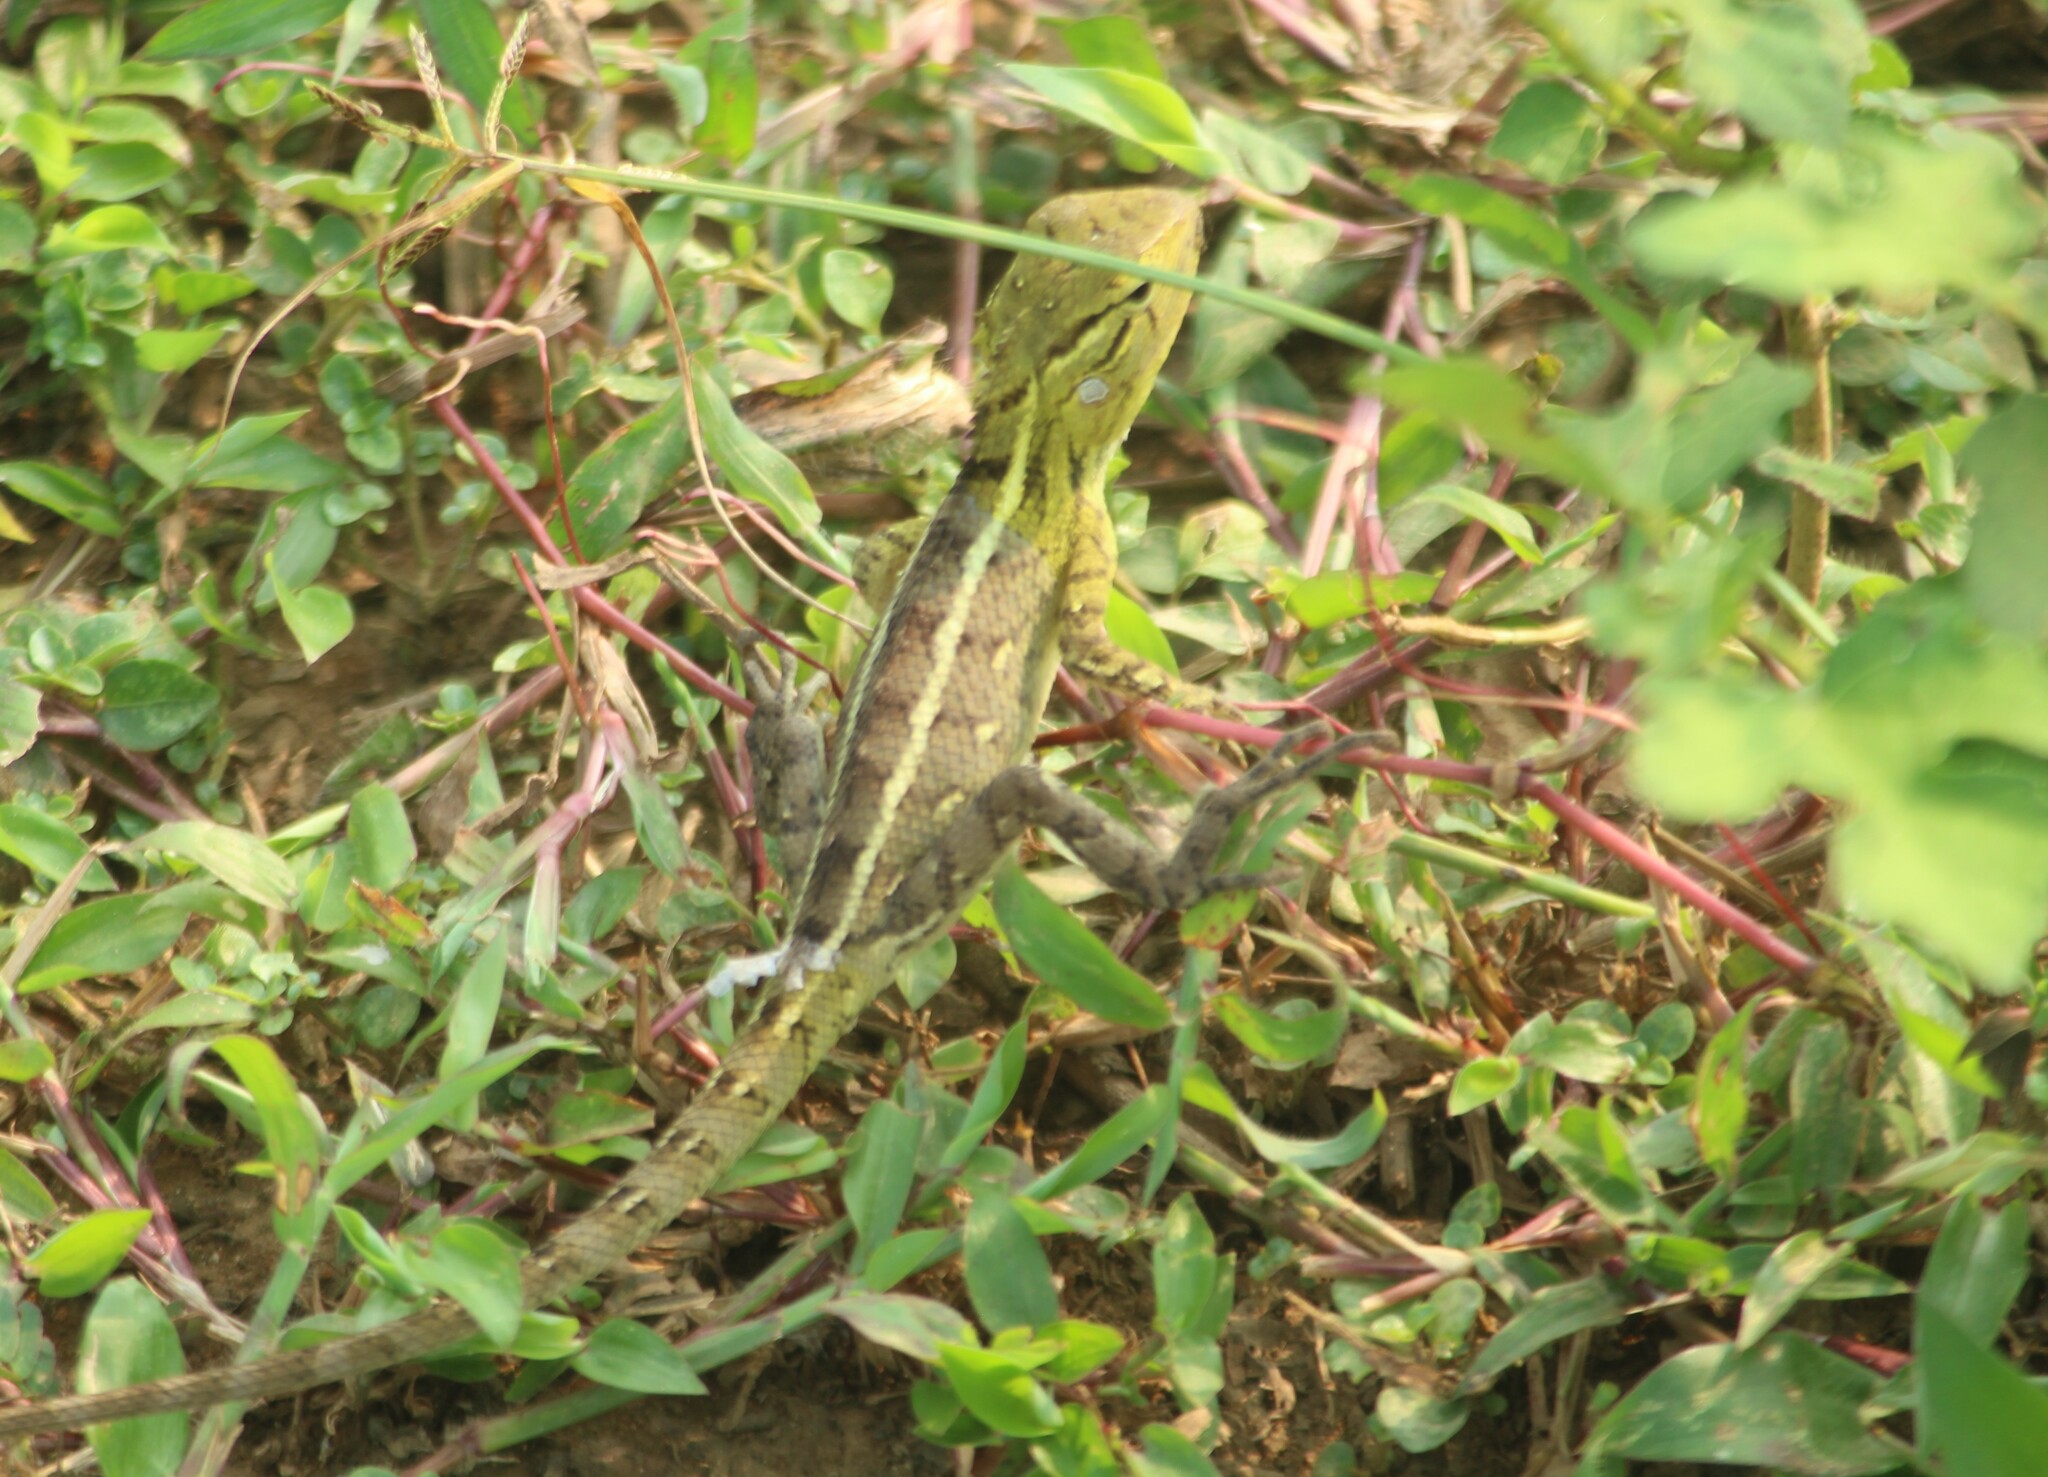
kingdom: Animalia
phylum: Chordata
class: Squamata
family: Agamidae
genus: Calotes
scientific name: Calotes versicolor
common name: Oriental garden lizard
